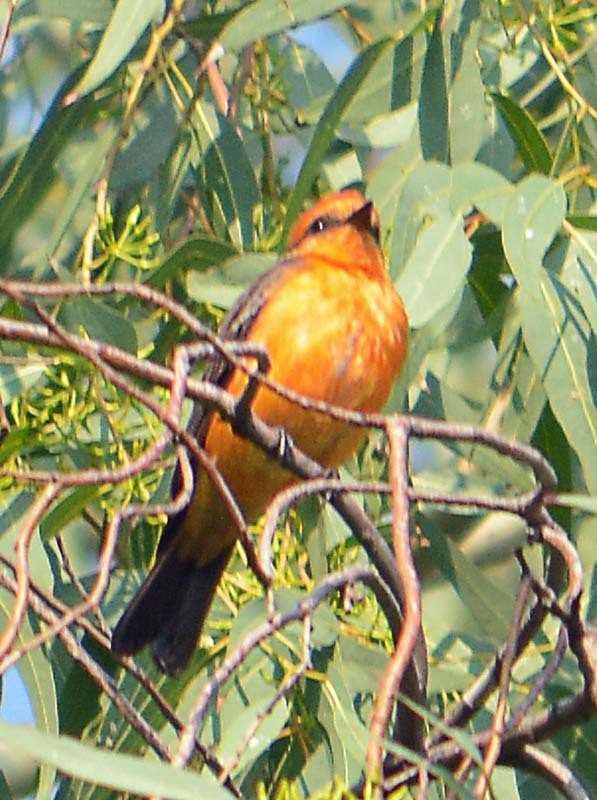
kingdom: Animalia
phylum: Chordata
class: Aves
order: Passeriformes
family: Tyrannidae
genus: Pyrocephalus
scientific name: Pyrocephalus rubinus
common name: Vermilion flycatcher
